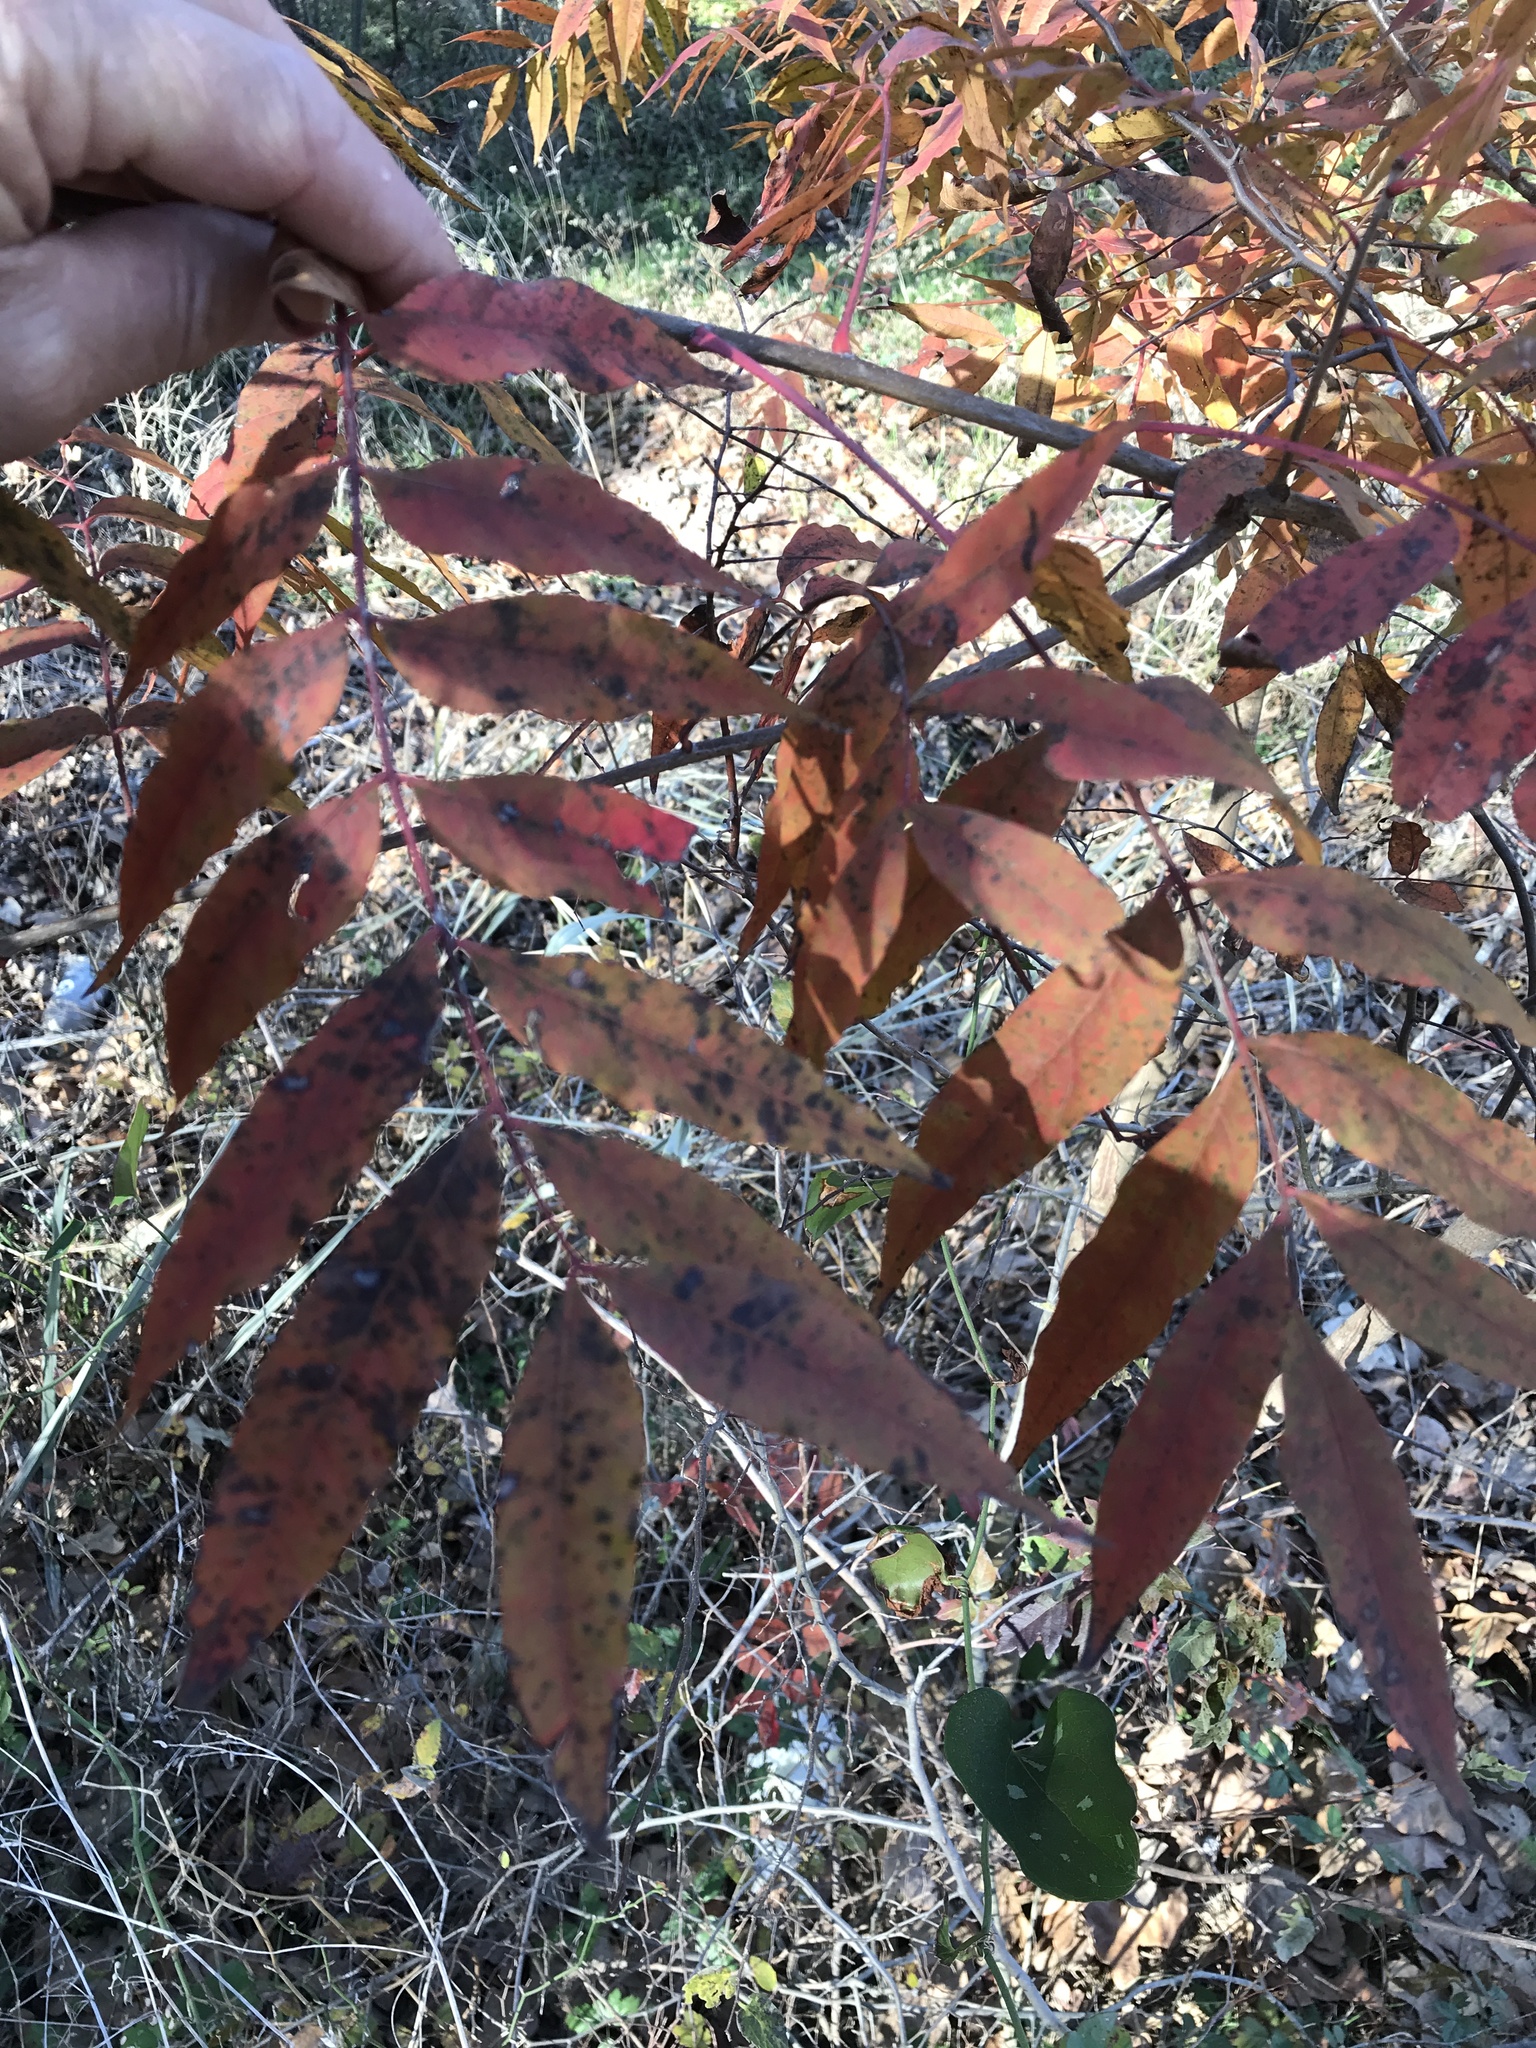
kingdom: Plantae
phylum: Tracheophyta
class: Magnoliopsida
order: Sapindales
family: Anacardiaceae
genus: Pistacia
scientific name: Pistacia chinensis
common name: Chinese pistache
